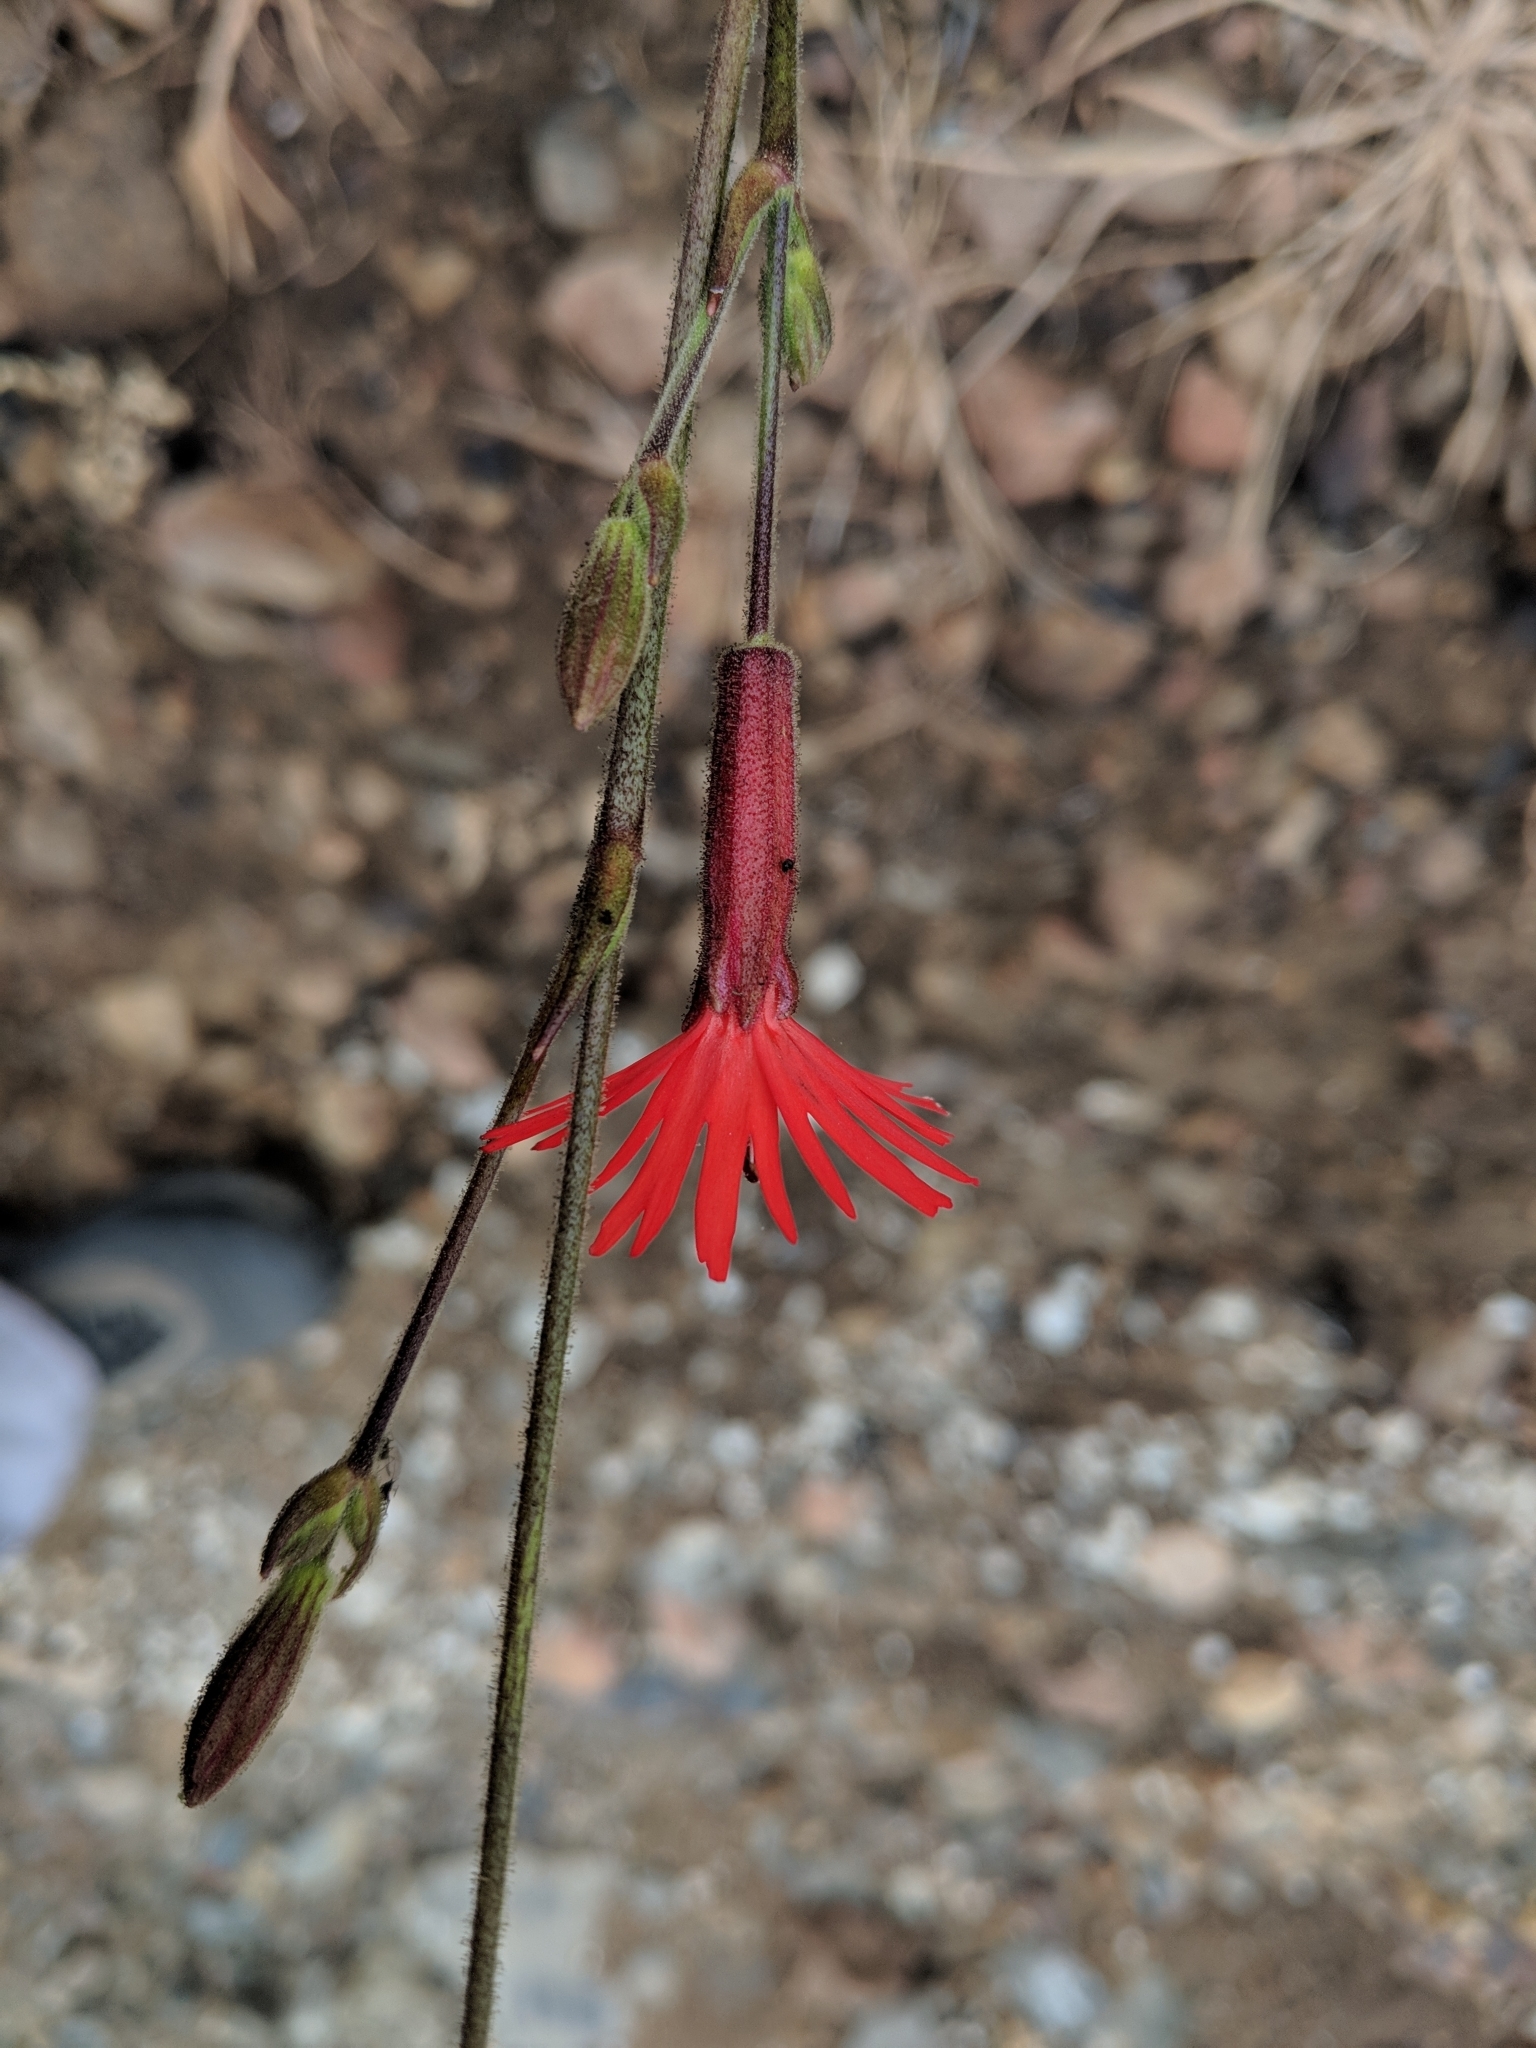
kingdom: Plantae
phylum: Tracheophyta
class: Magnoliopsida
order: Caryophyllales
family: Caryophyllaceae
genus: Silene
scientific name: Silene laciniata
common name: Indian-pink
